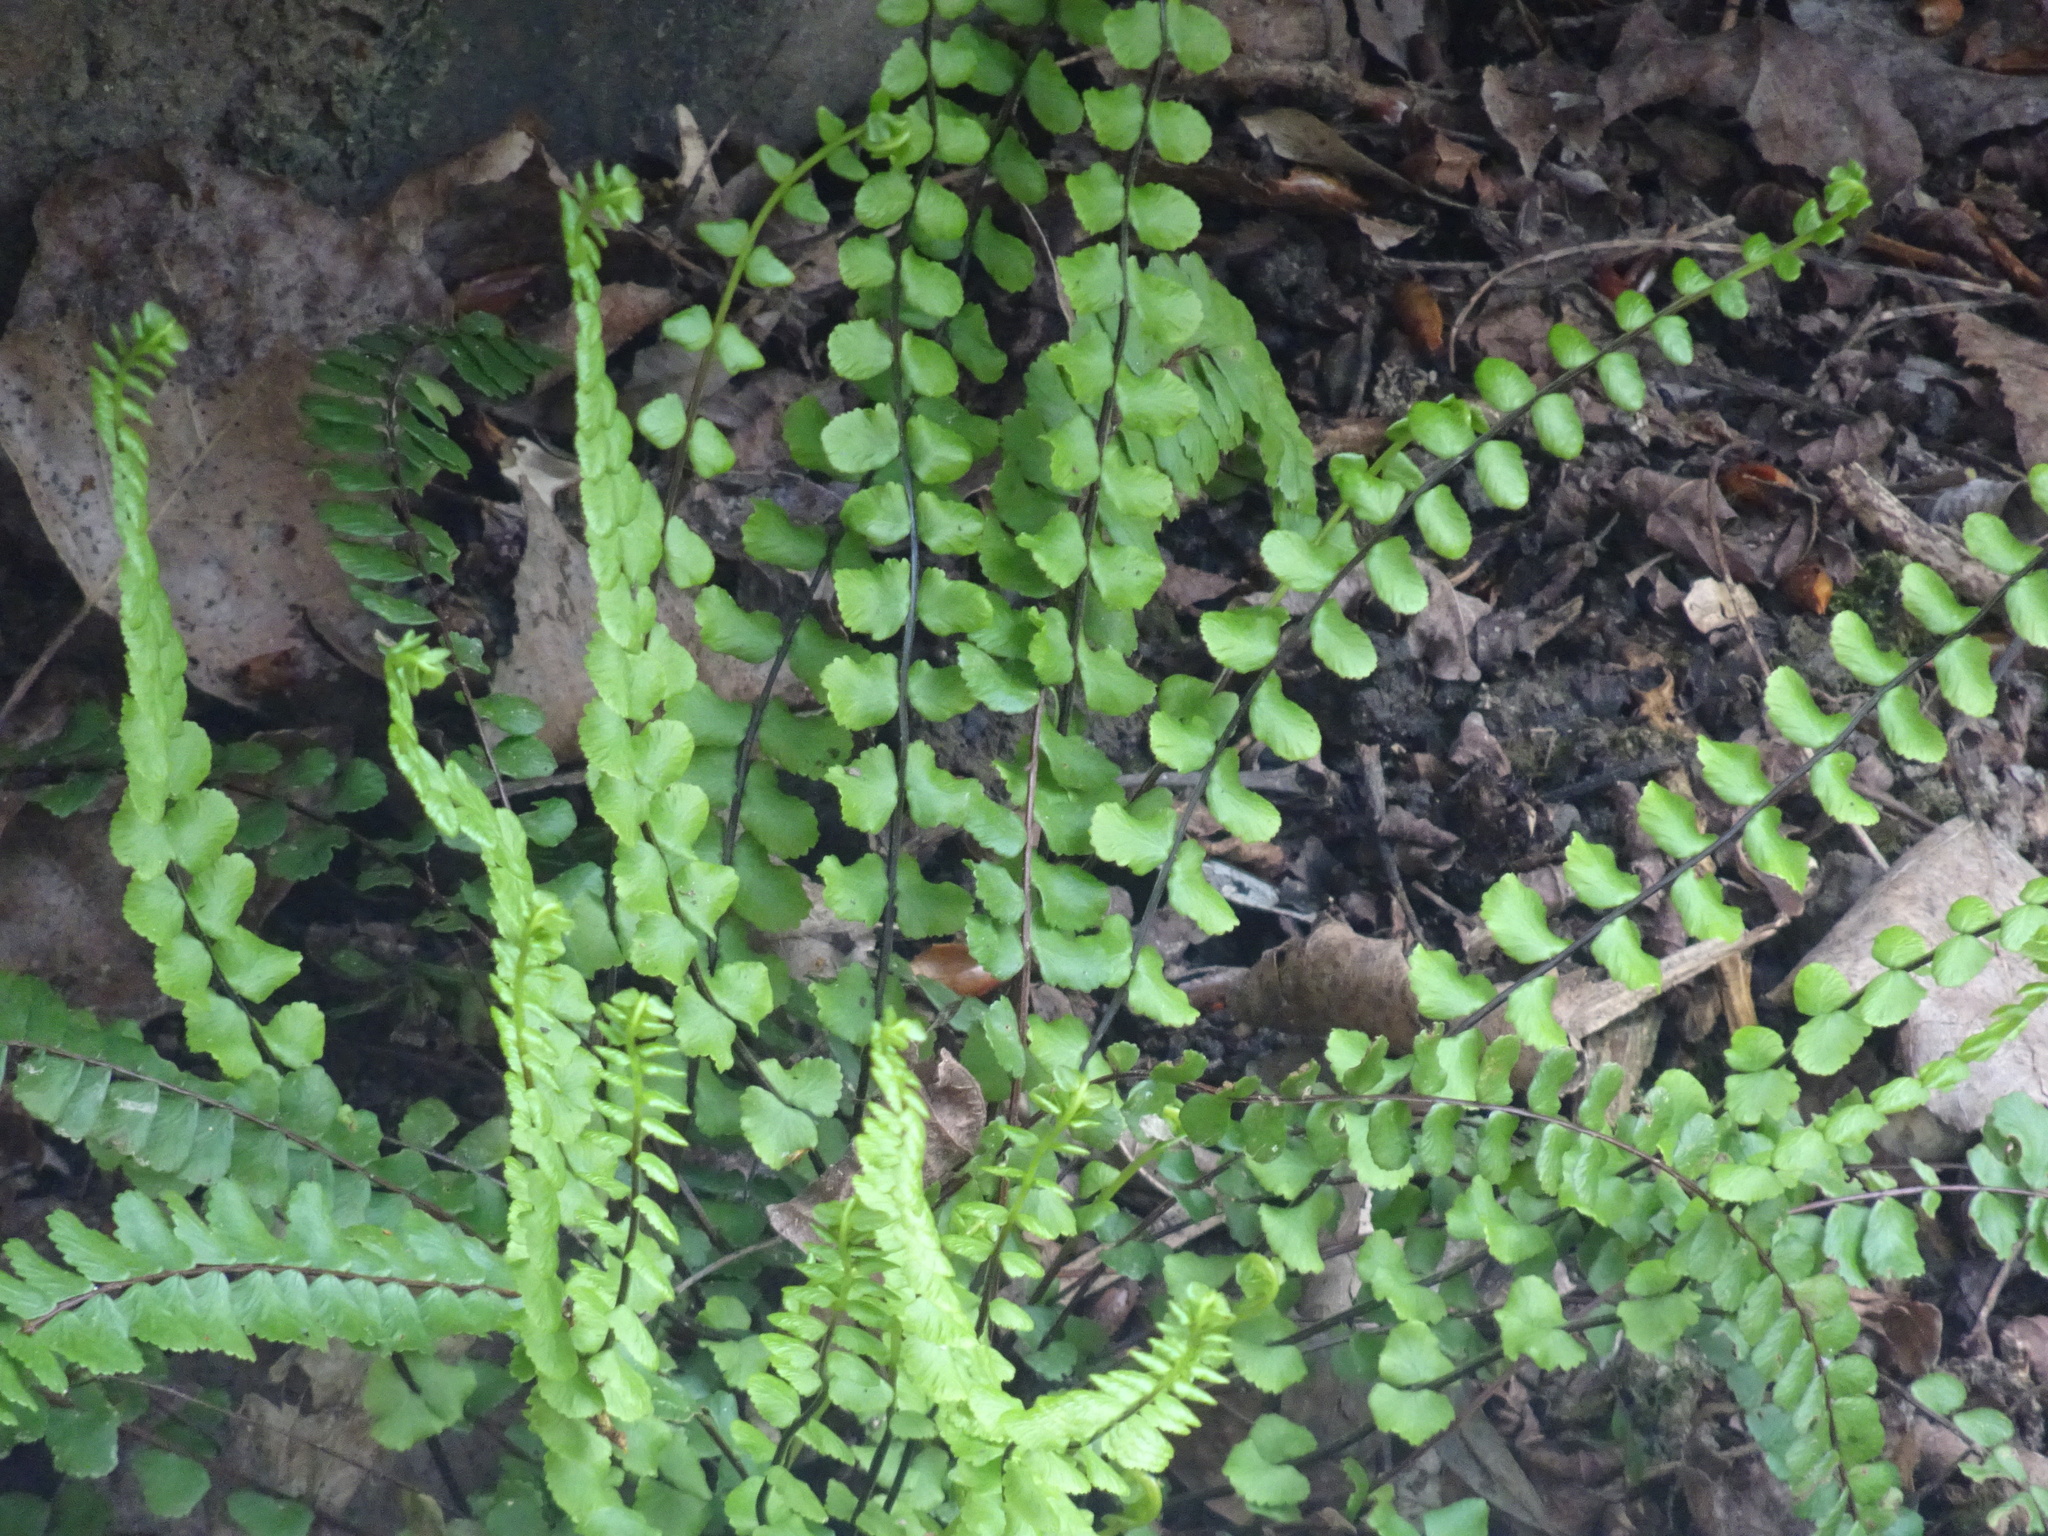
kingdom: Plantae
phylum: Tracheophyta
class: Polypodiopsida
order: Polypodiales
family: Aspleniaceae
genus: Asplenium
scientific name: Asplenium trichomanes
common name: Maidenhair spleenwort
